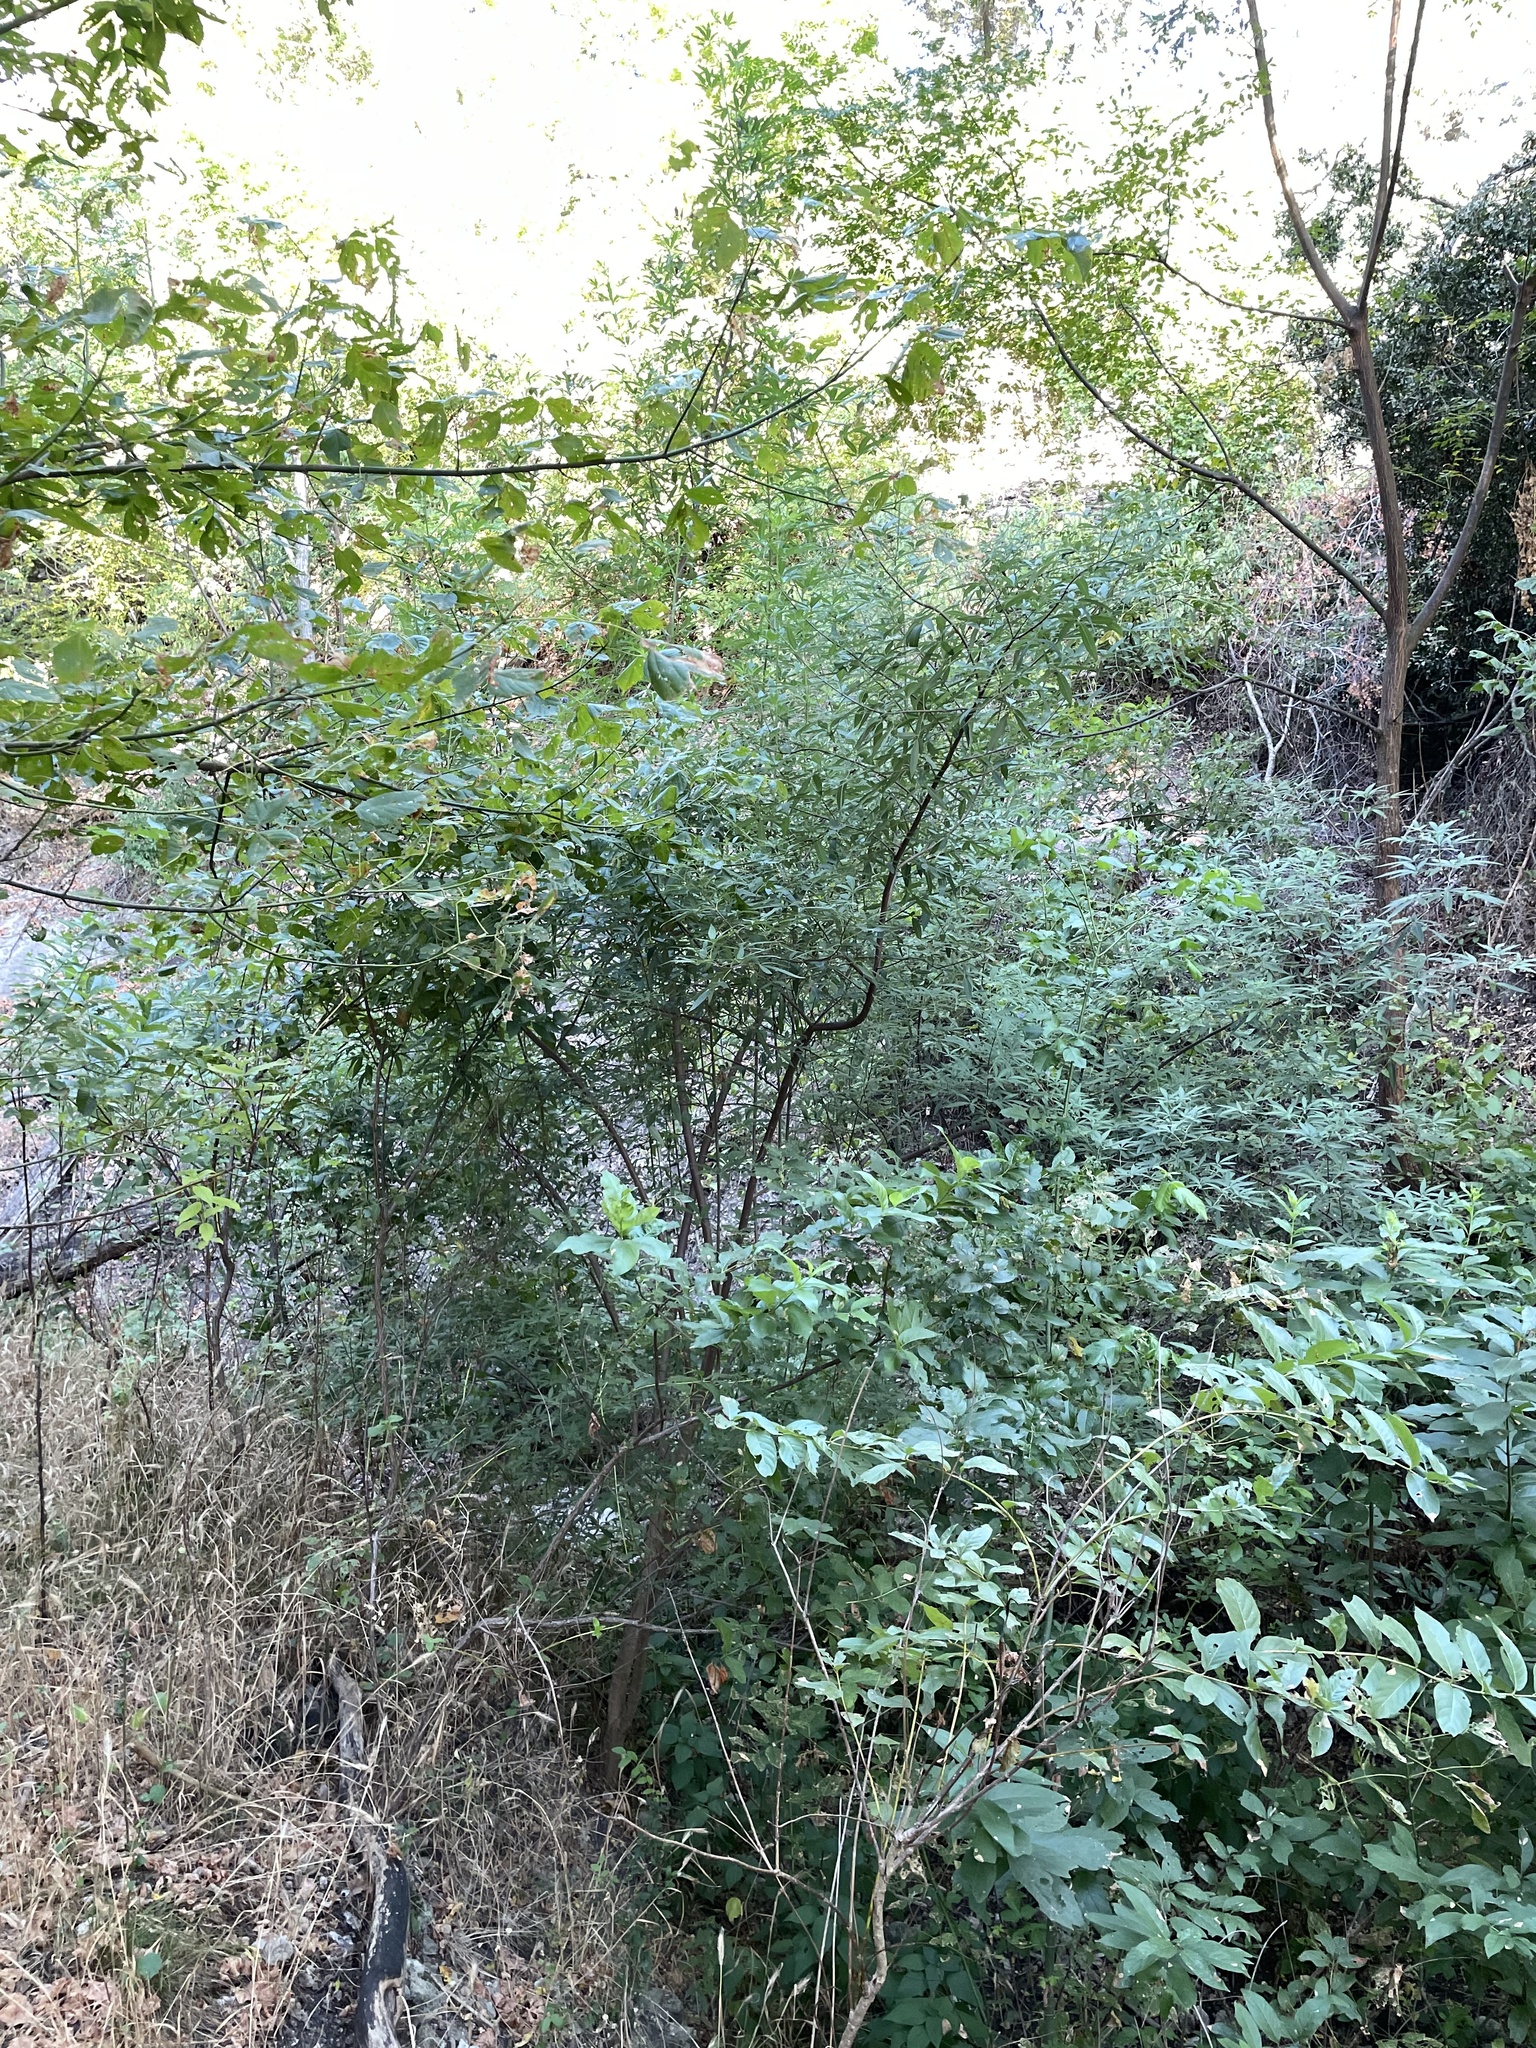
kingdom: Plantae
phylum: Tracheophyta
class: Magnoliopsida
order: Lamiales
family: Lamiaceae
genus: Vitex
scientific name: Vitex agnus-castus
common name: Chasteberry
